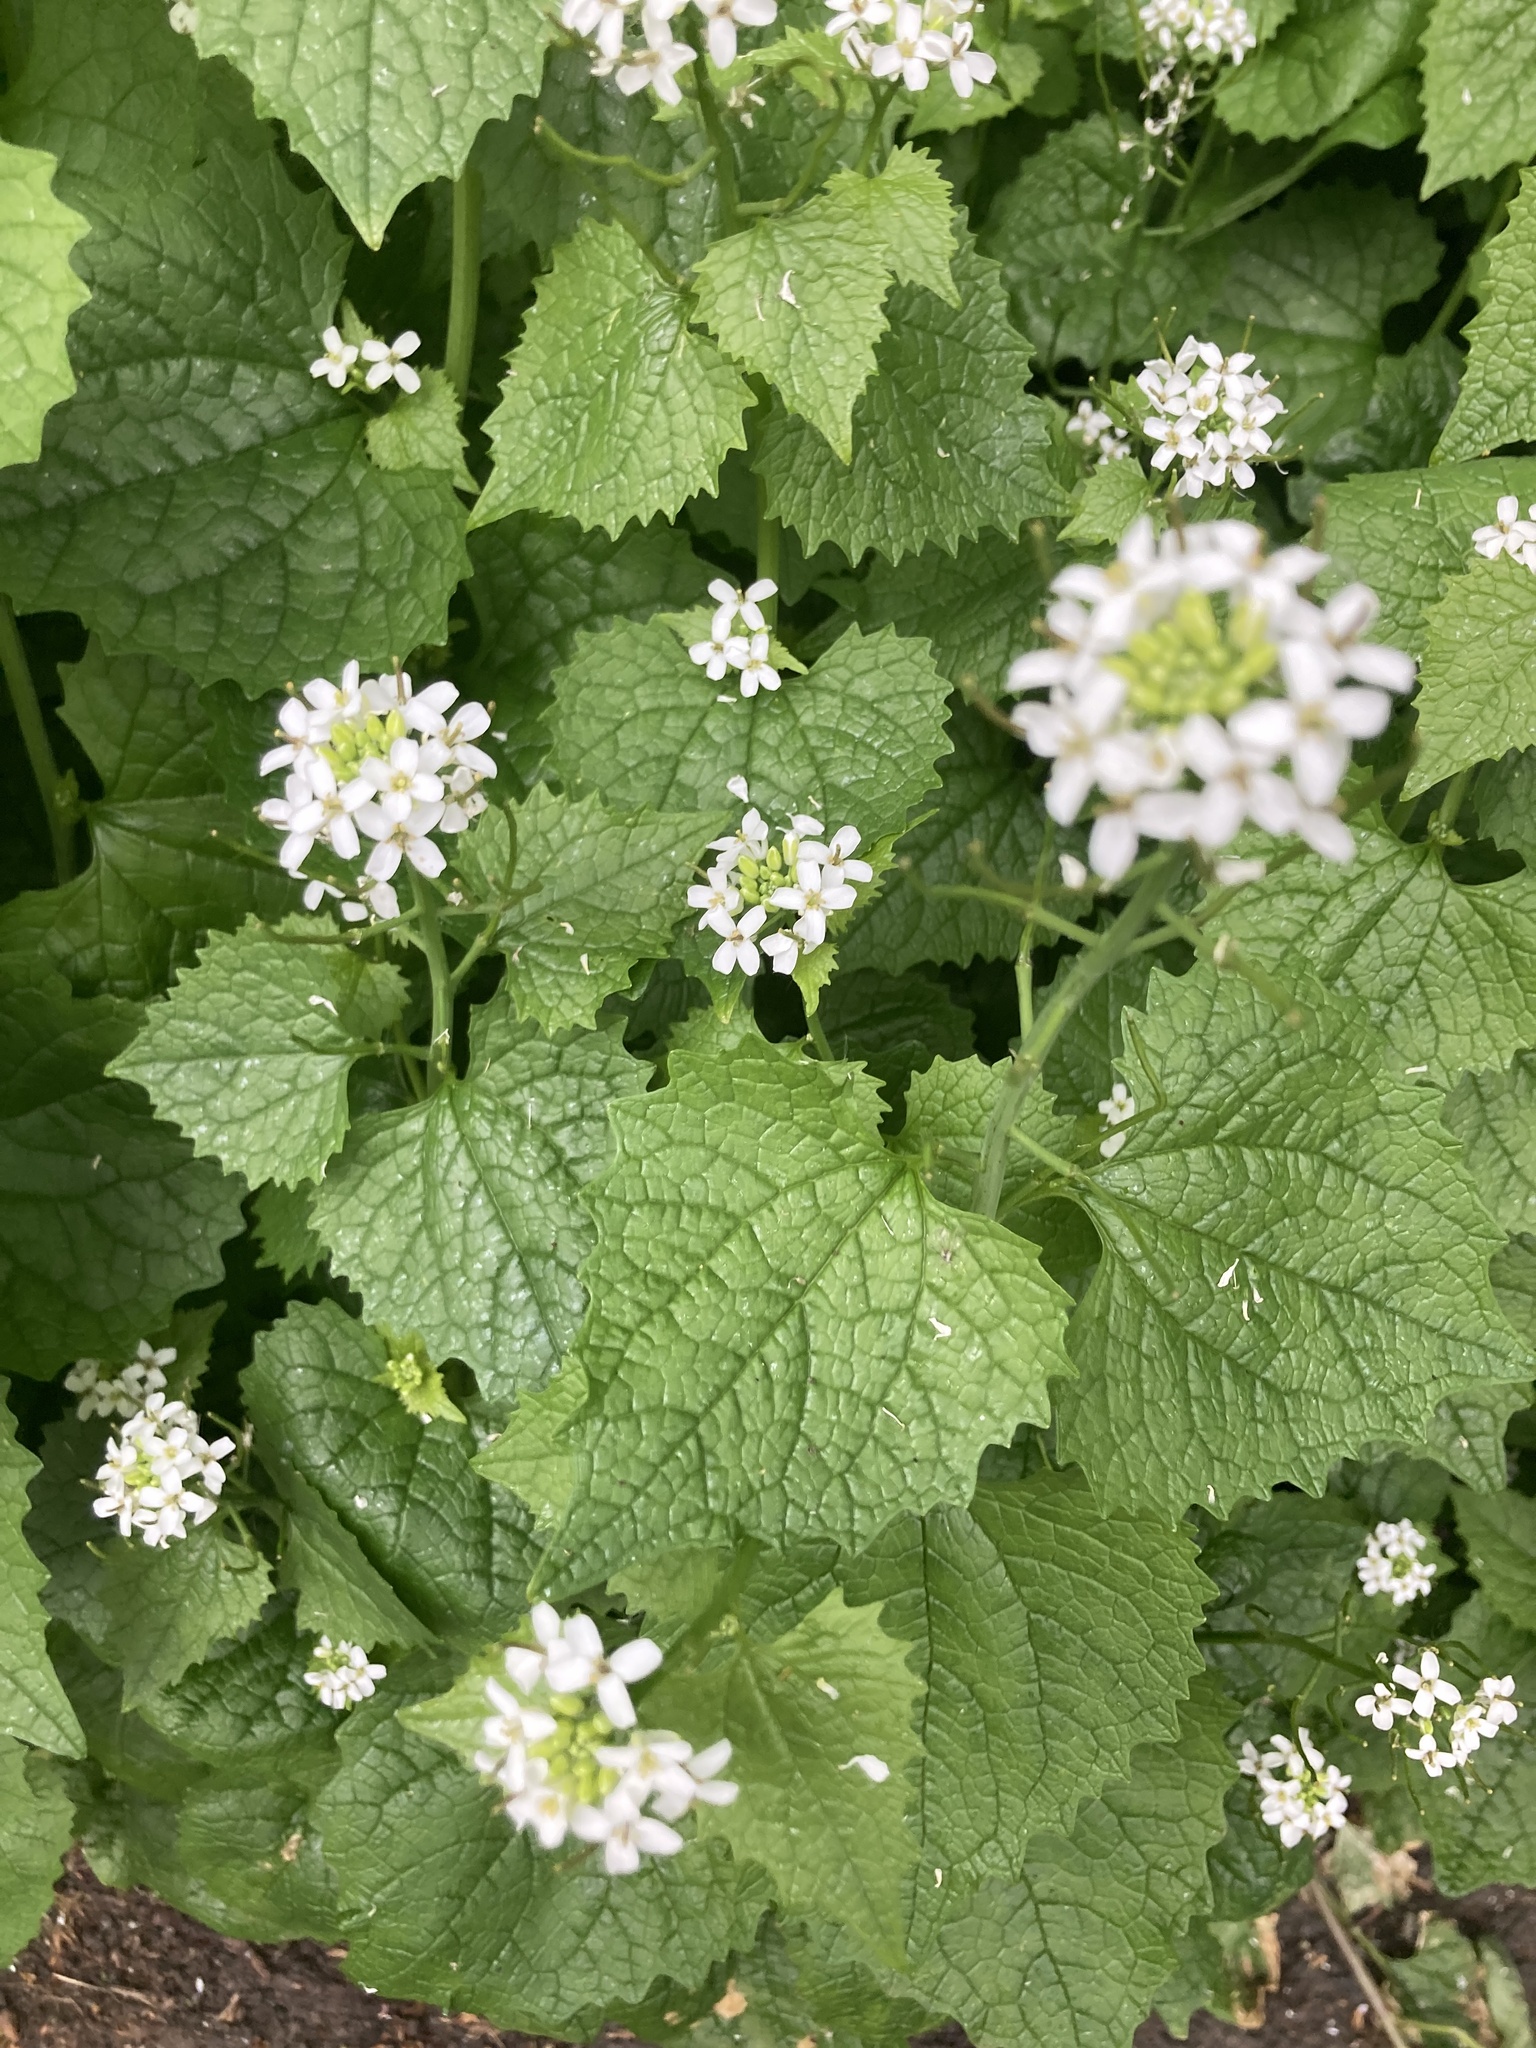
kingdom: Plantae
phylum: Tracheophyta
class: Magnoliopsida
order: Brassicales
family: Brassicaceae
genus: Alliaria
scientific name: Alliaria petiolata
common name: Garlic mustard
